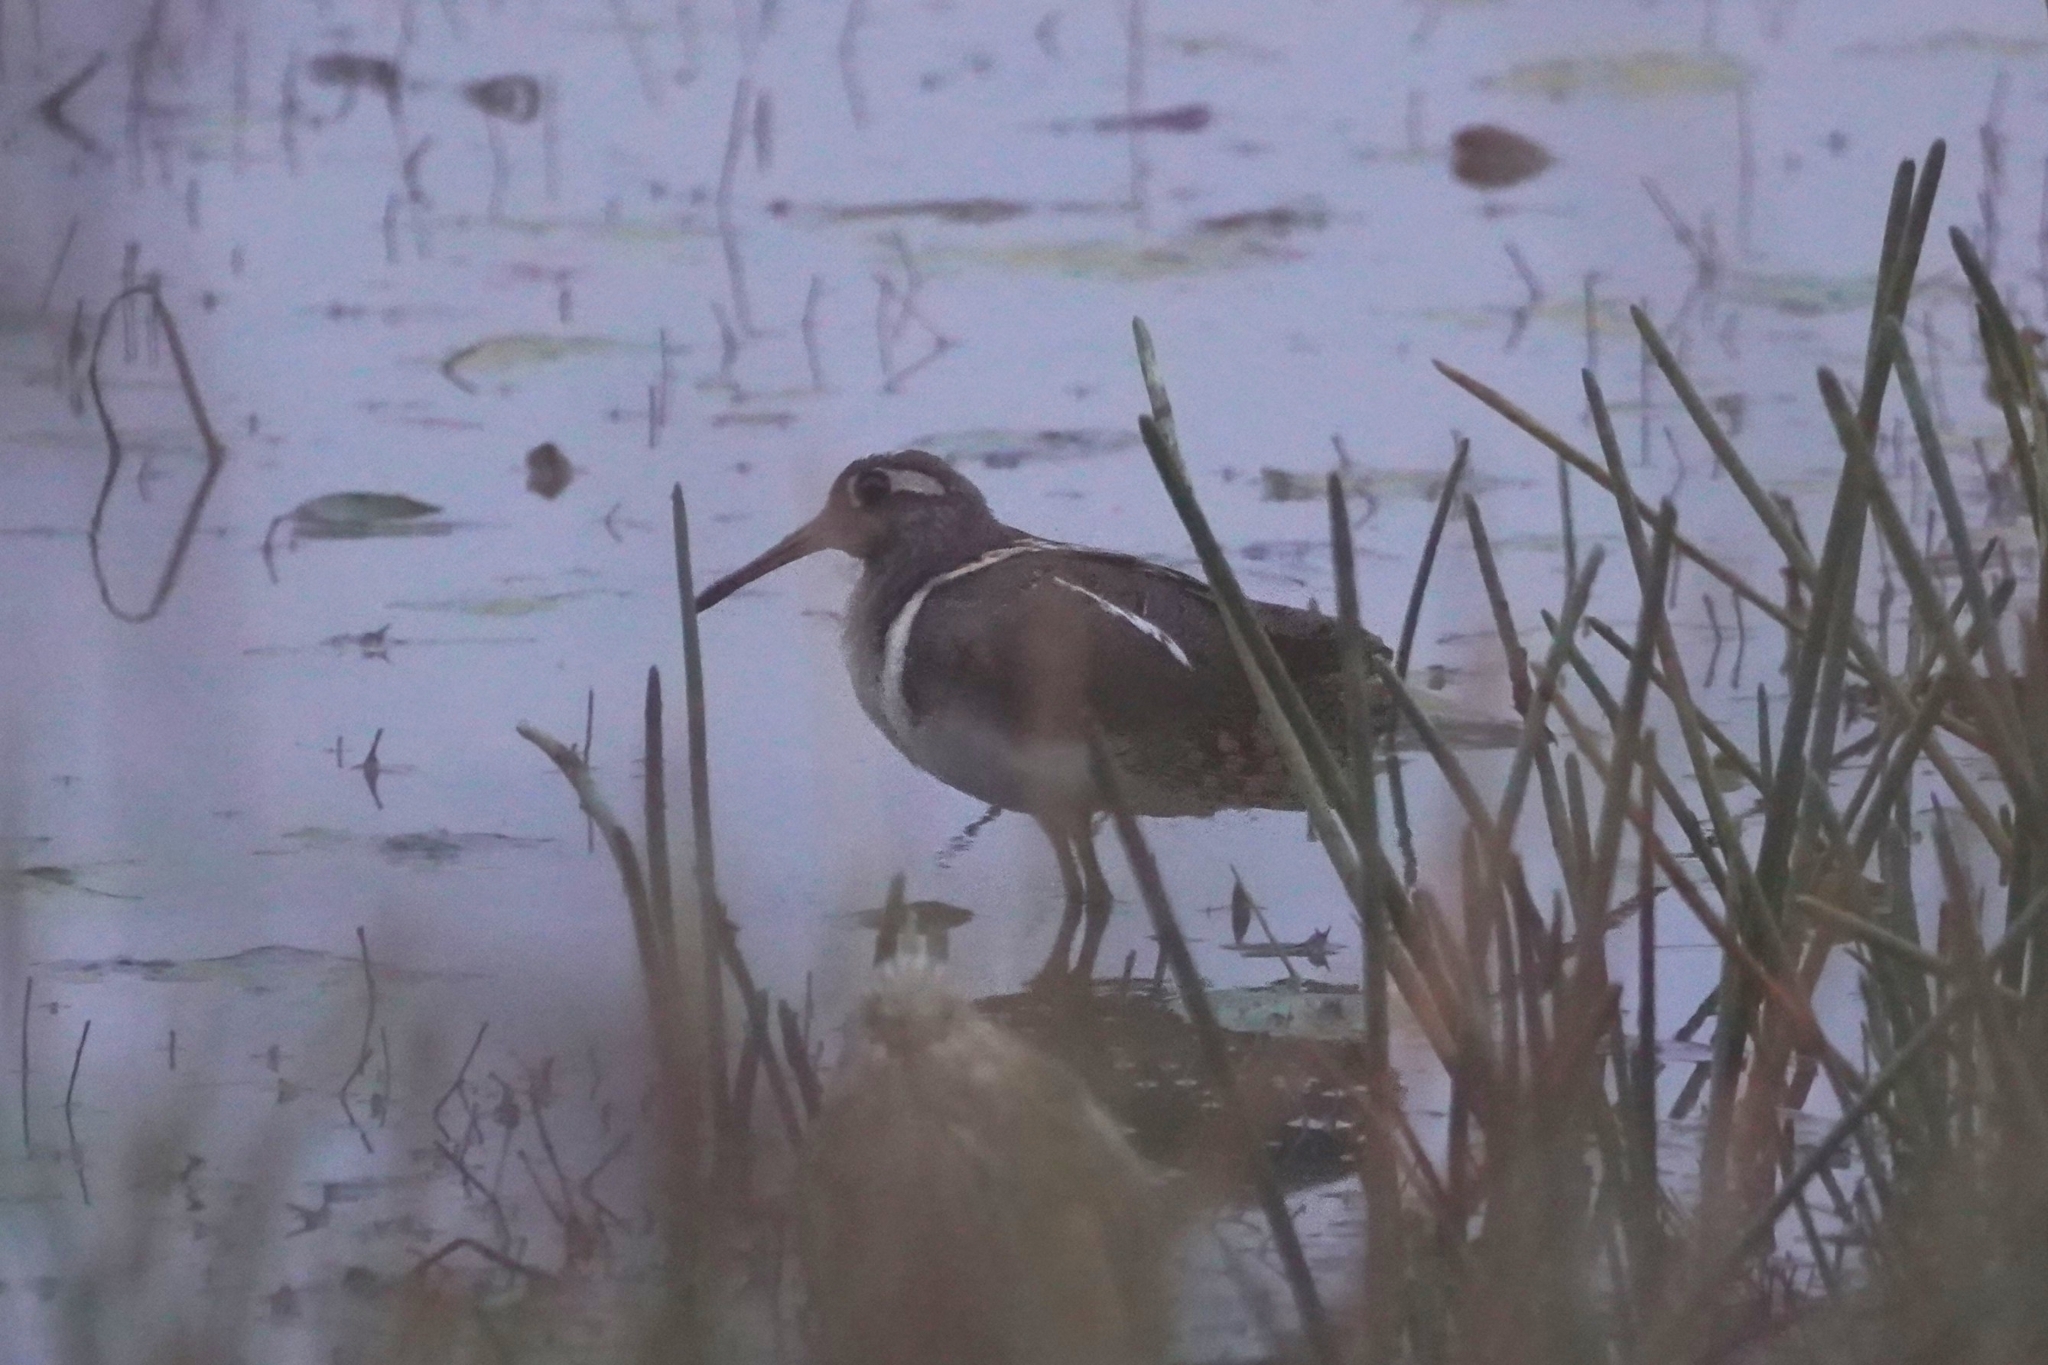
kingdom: Animalia
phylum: Chordata
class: Aves
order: Charadriiformes
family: Rostratulidae
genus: Rostratula
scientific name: Rostratula benghalensis
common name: Greater painted-snipe
